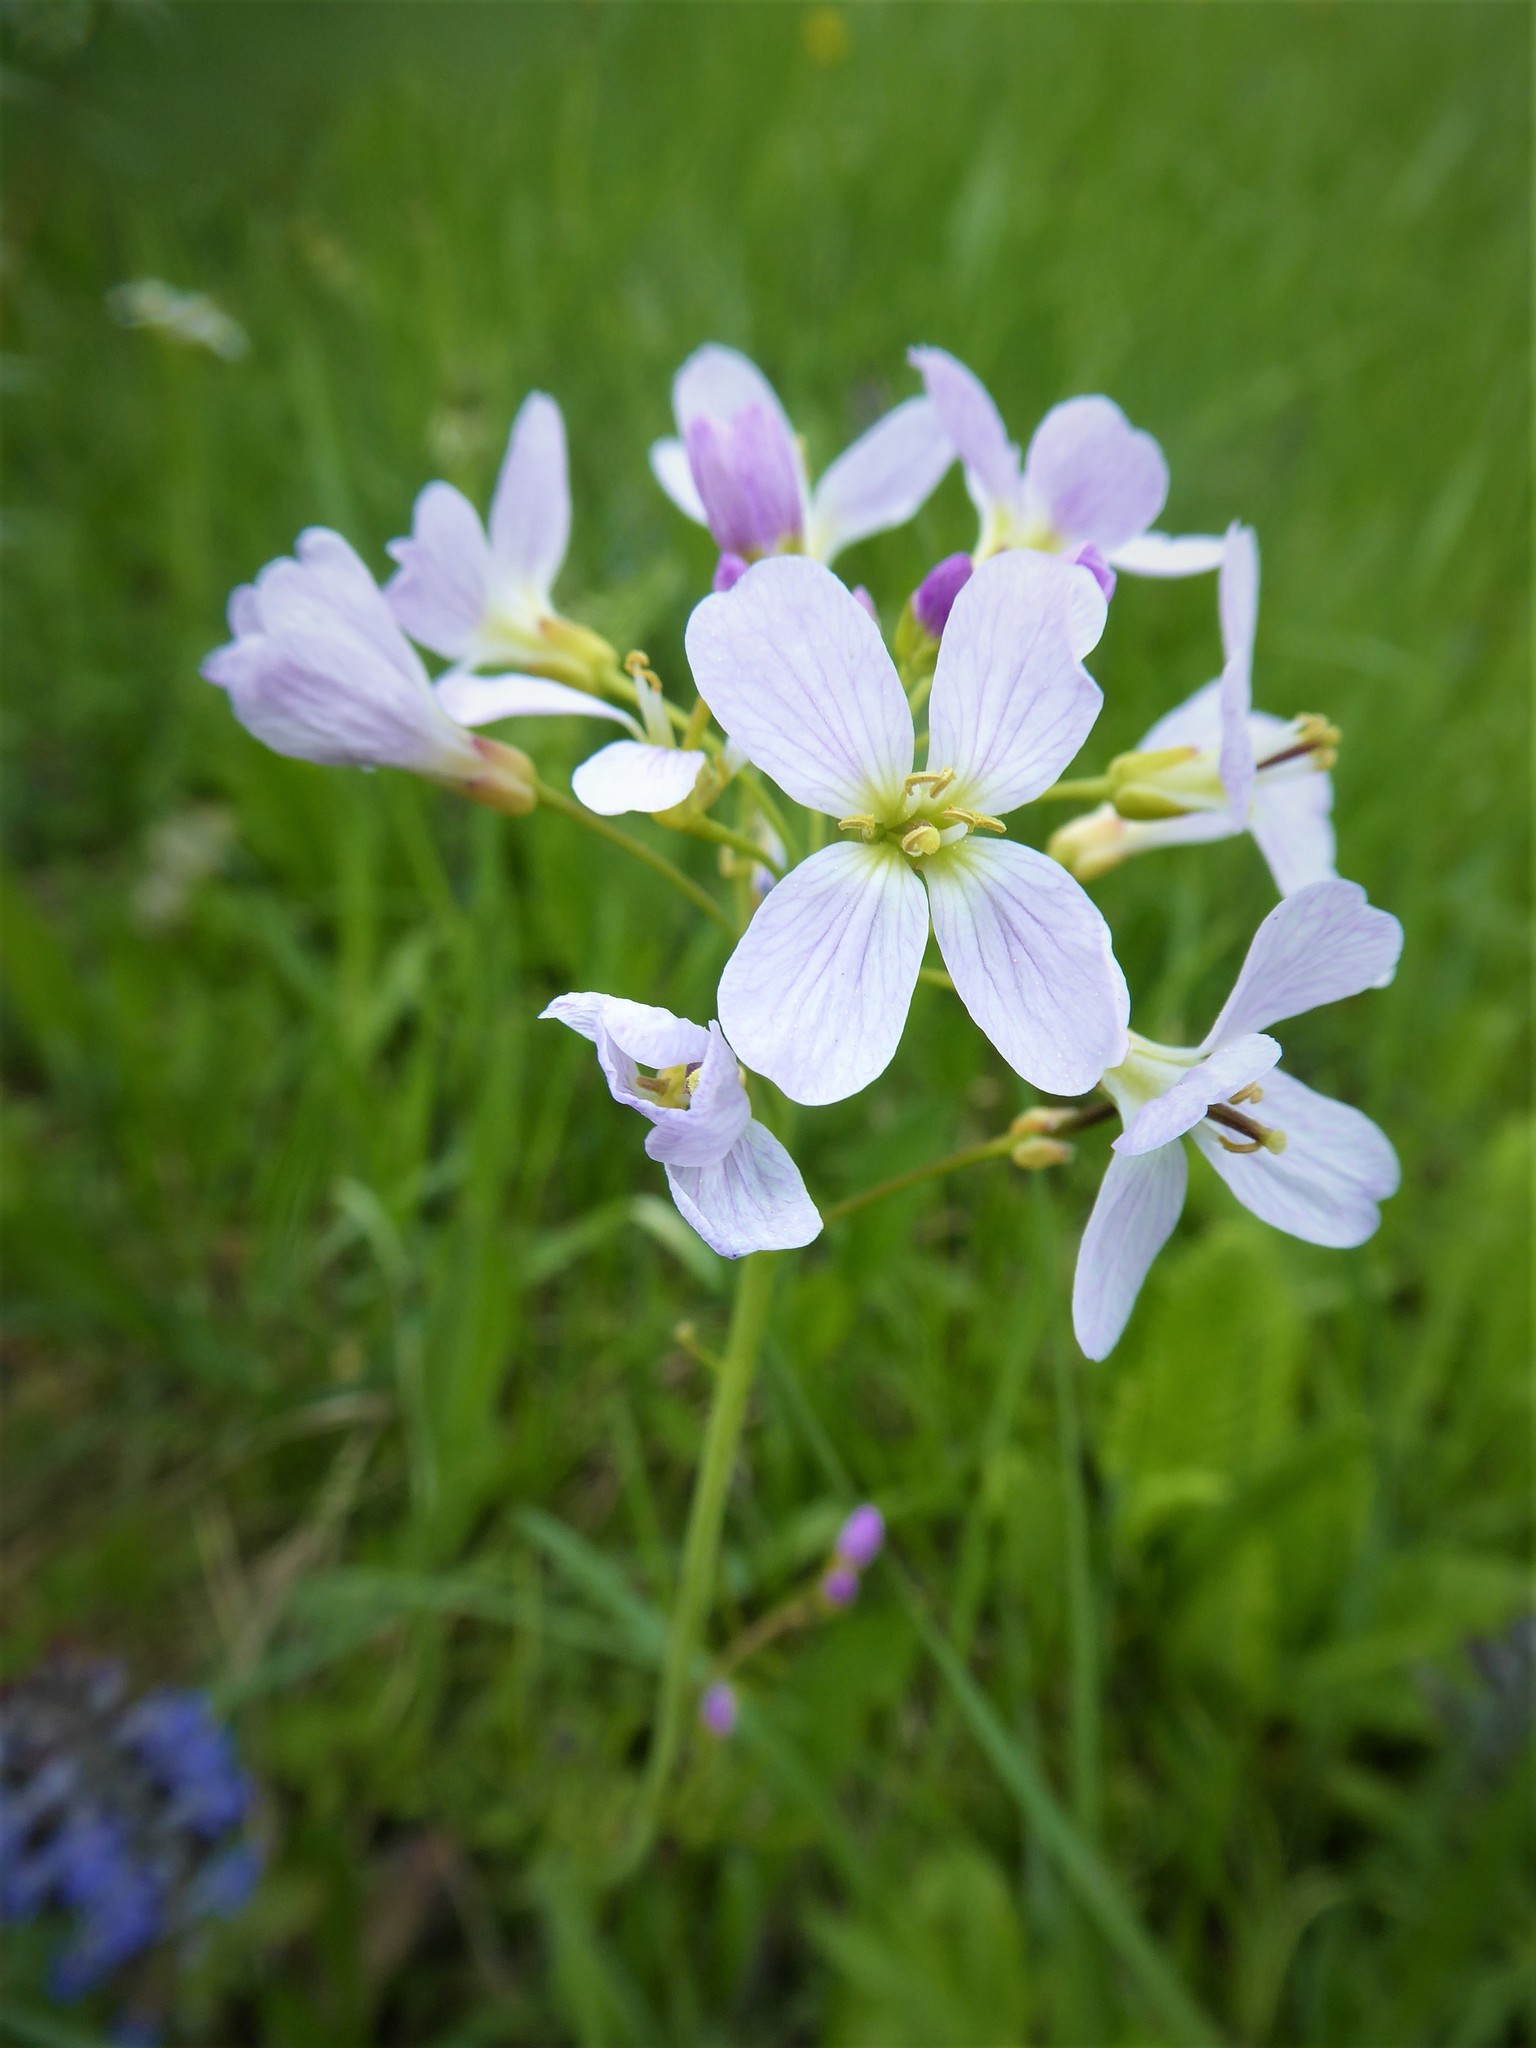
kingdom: Plantae
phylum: Tracheophyta
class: Magnoliopsida
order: Brassicales
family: Brassicaceae
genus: Cardamine
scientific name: Cardamine pratensis
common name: Cuckoo flower
